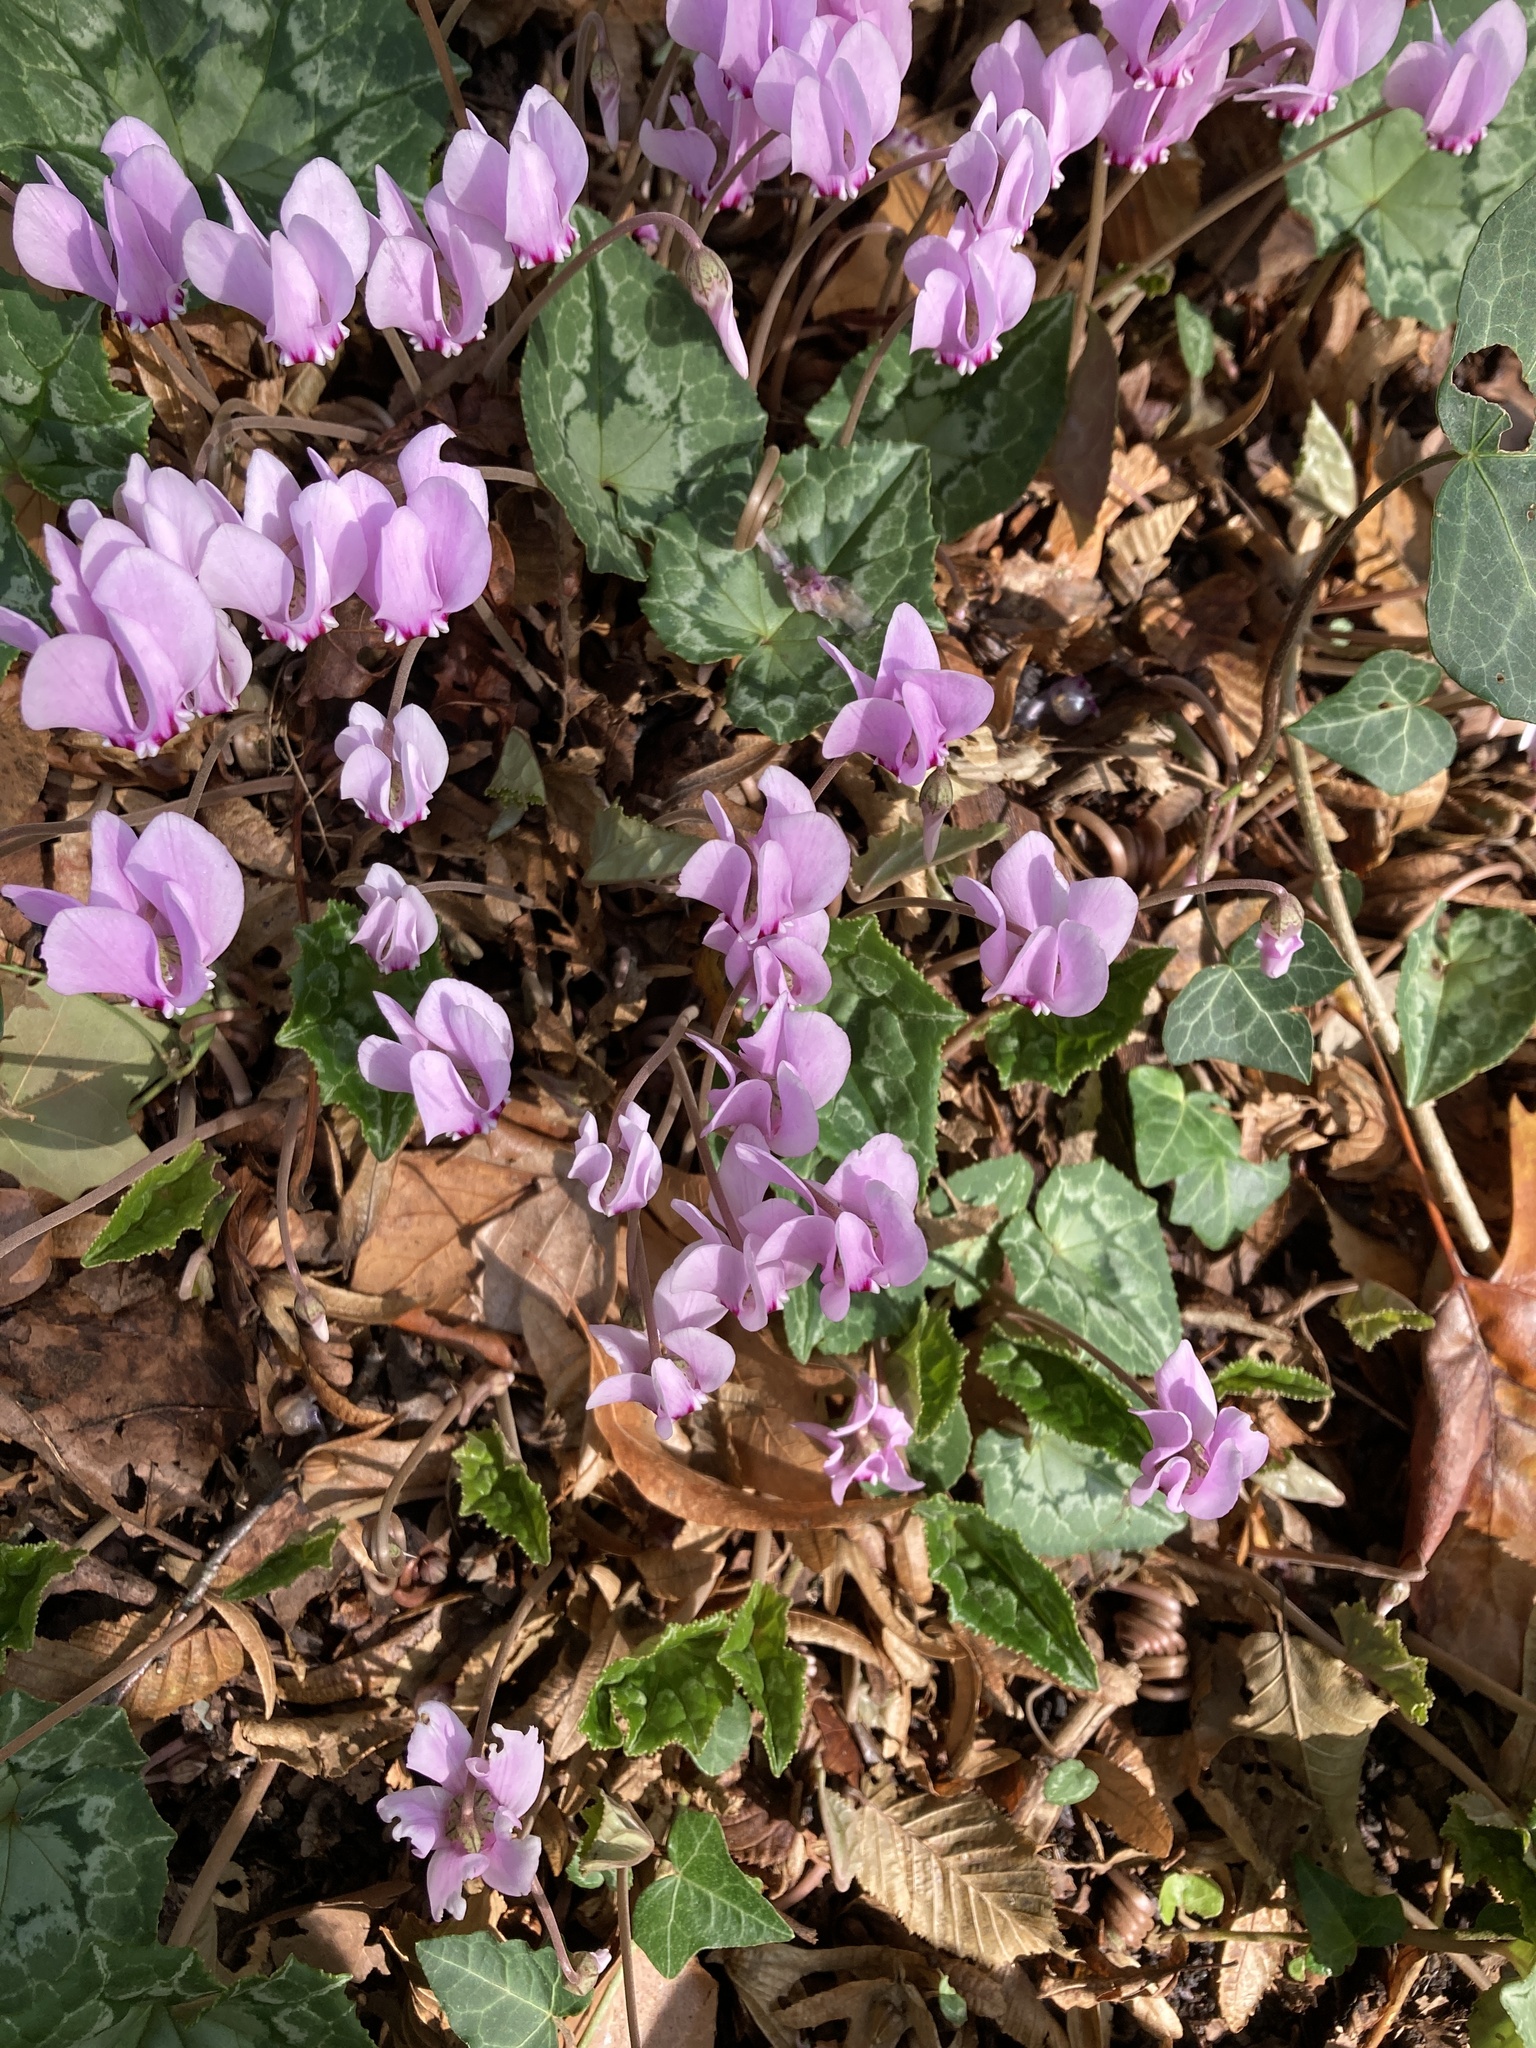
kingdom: Plantae
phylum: Tracheophyta
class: Magnoliopsida
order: Ericales
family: Primulaceae
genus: Cyclamen
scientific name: Cyclamen hederifolium
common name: Sowbread
